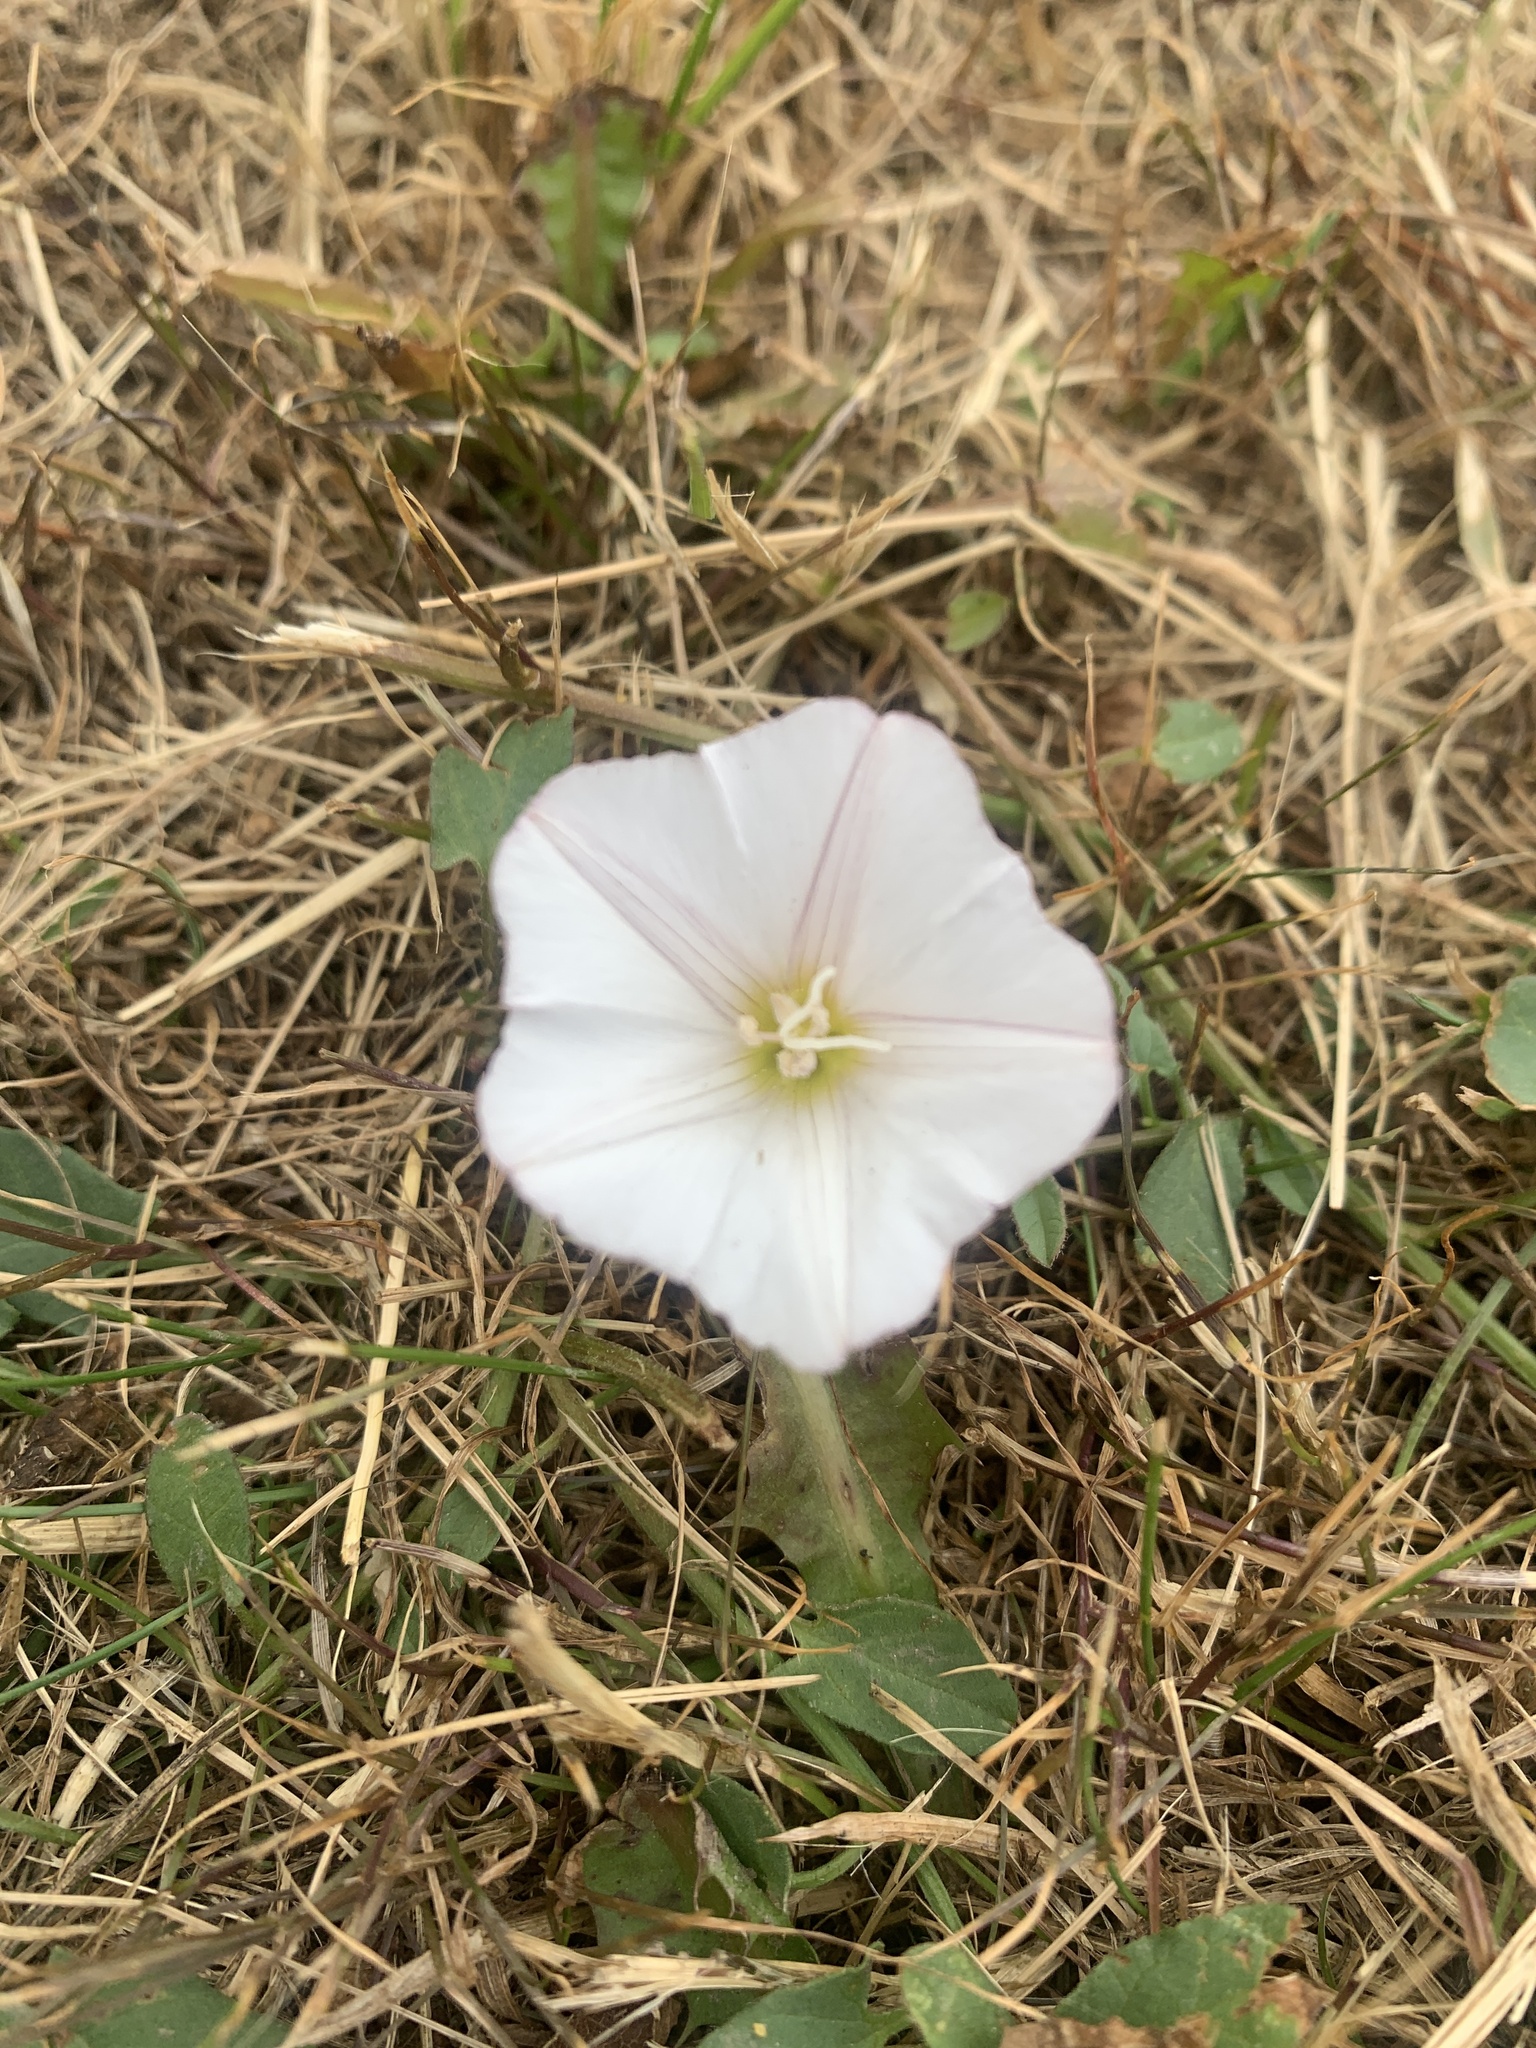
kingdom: Plantae
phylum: Tracheophyta
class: Magnoliopsida
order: Solanales
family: Convolvulaceae
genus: Convolvulus
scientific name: Convolvulus arvensis
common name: Field bindweed
